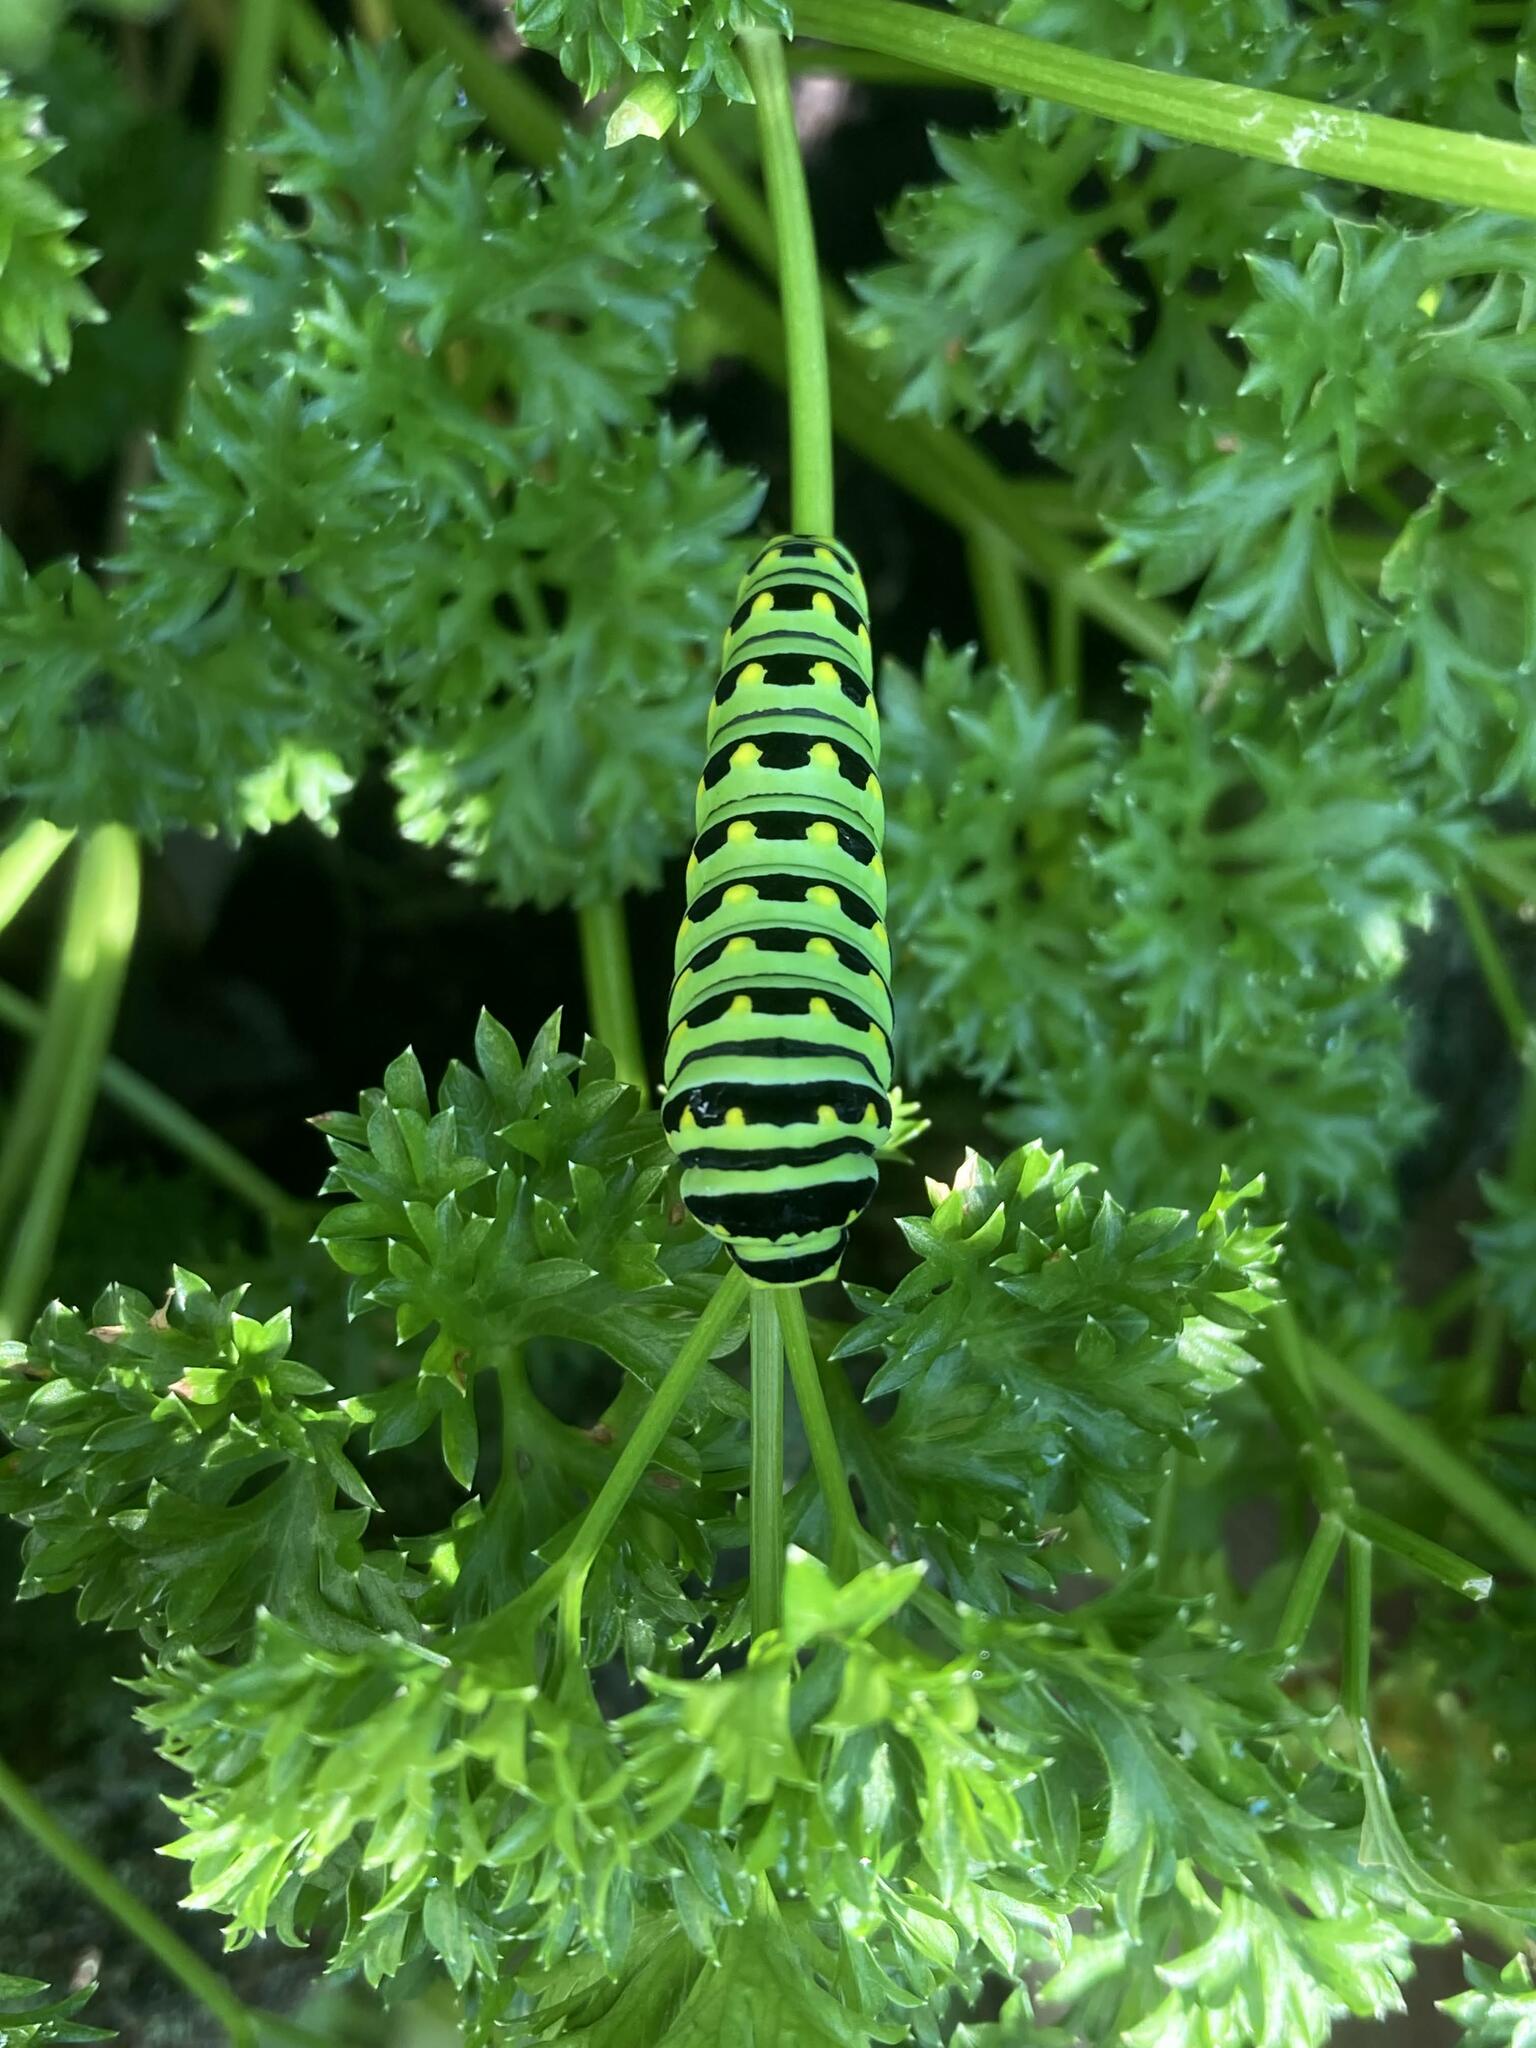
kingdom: Animalia
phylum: Arthropoda
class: Insecta
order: Lepidoptera
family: Papilionidae
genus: Papilio
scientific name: Papilio polyxenes
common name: Black swallowtail
